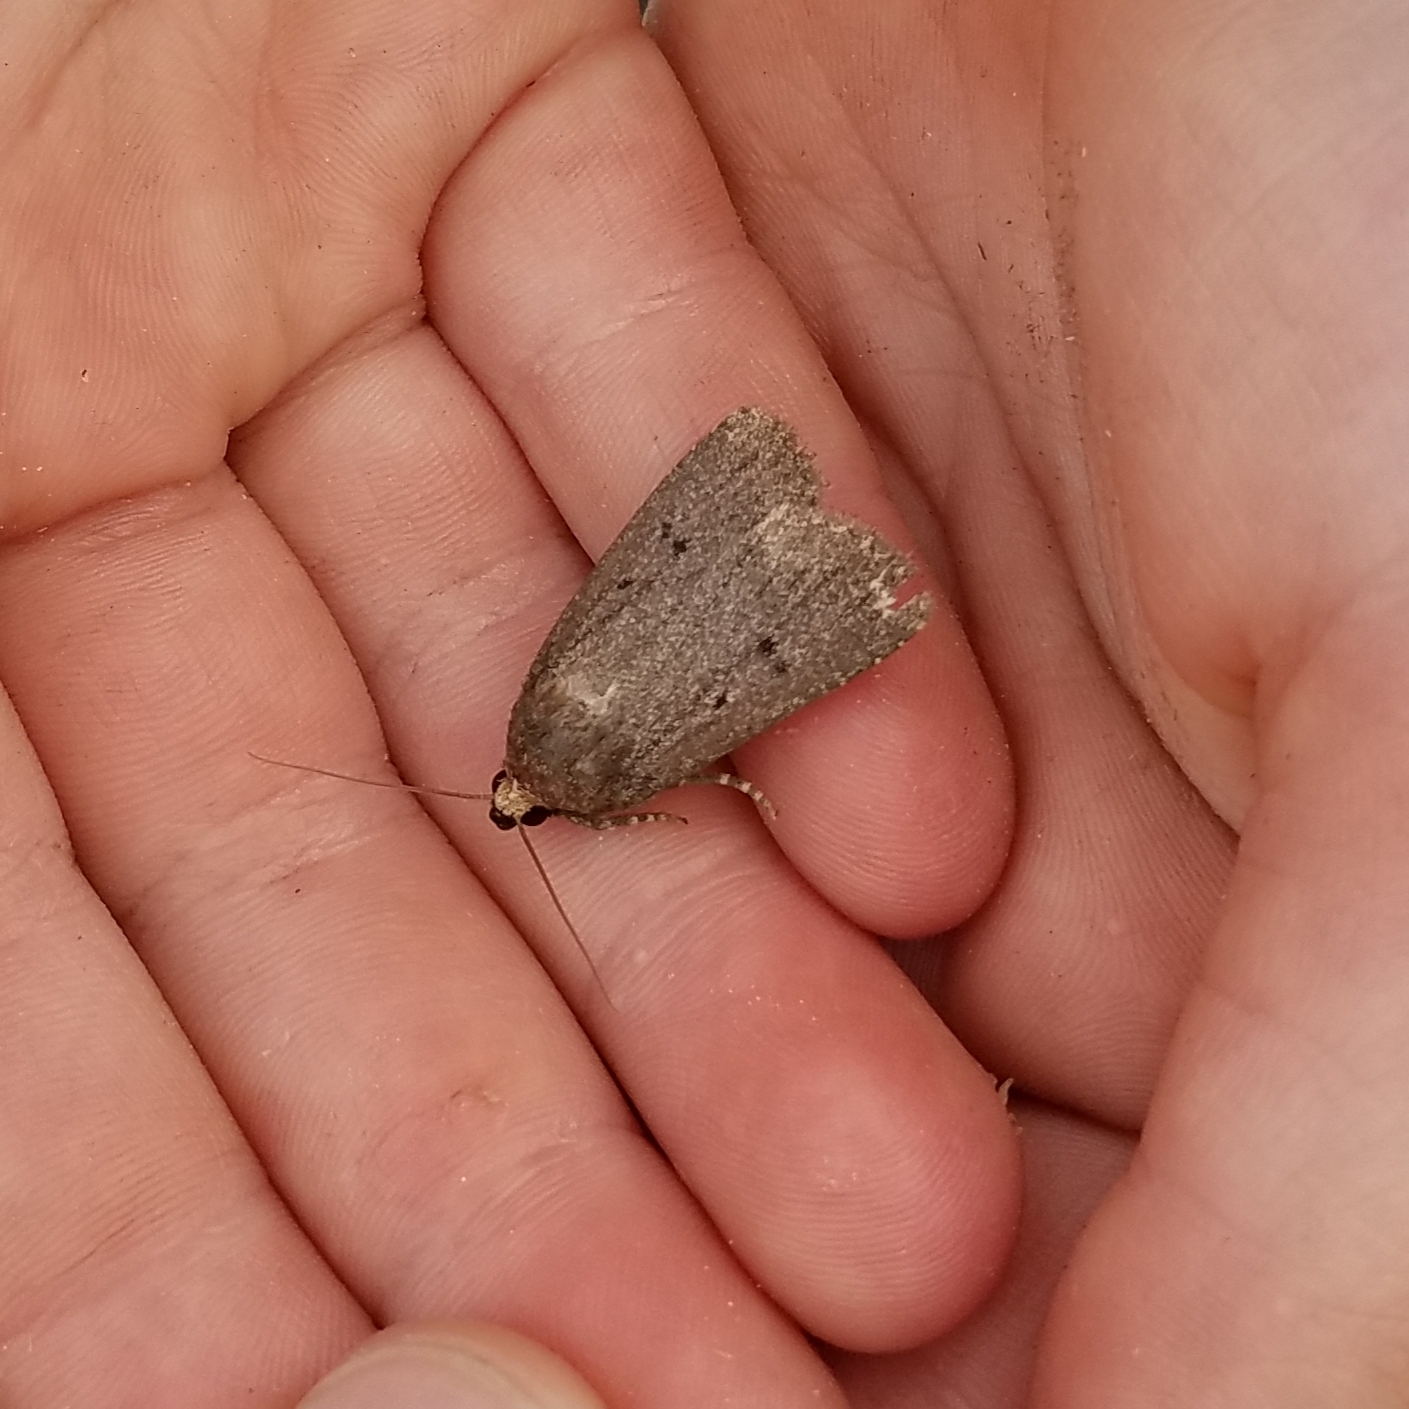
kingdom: Animalia
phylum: Arthropoda
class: Insecta
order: Lepidoptera
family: Noctuidae
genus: Amphipyra
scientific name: Amphipyra tragopoginis
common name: Mouse moth
